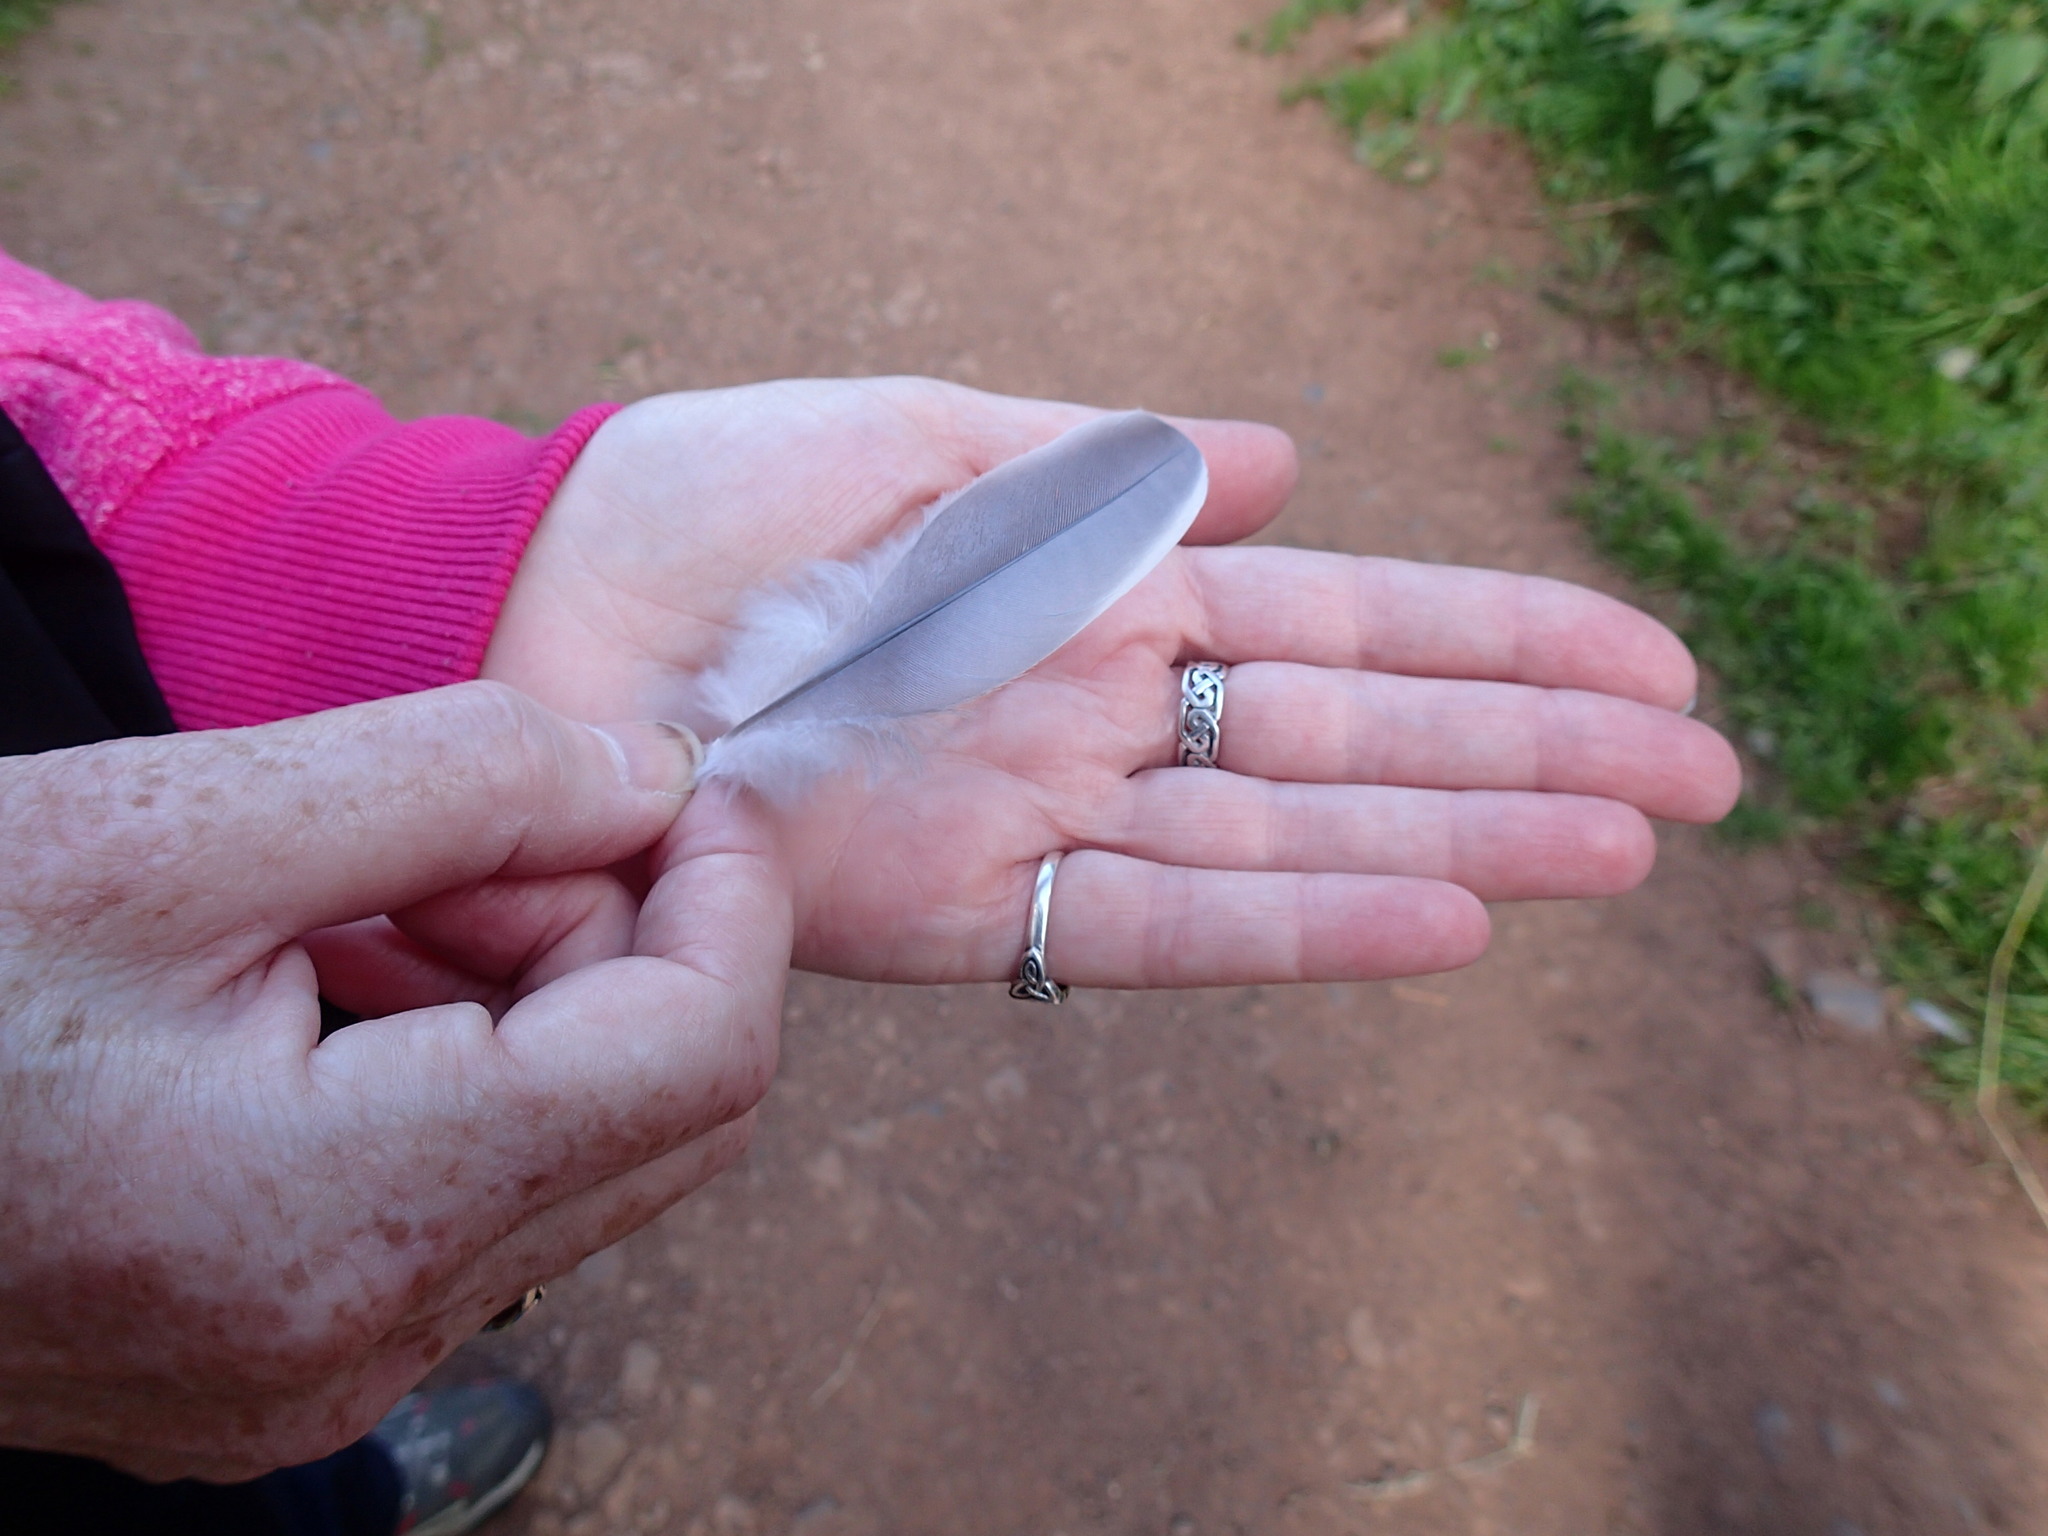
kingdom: Animalia
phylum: Chordata
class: Aves
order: Columbiformes
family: Columbidae
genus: Columba
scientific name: Columba palumbus
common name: Common wood pigeon
